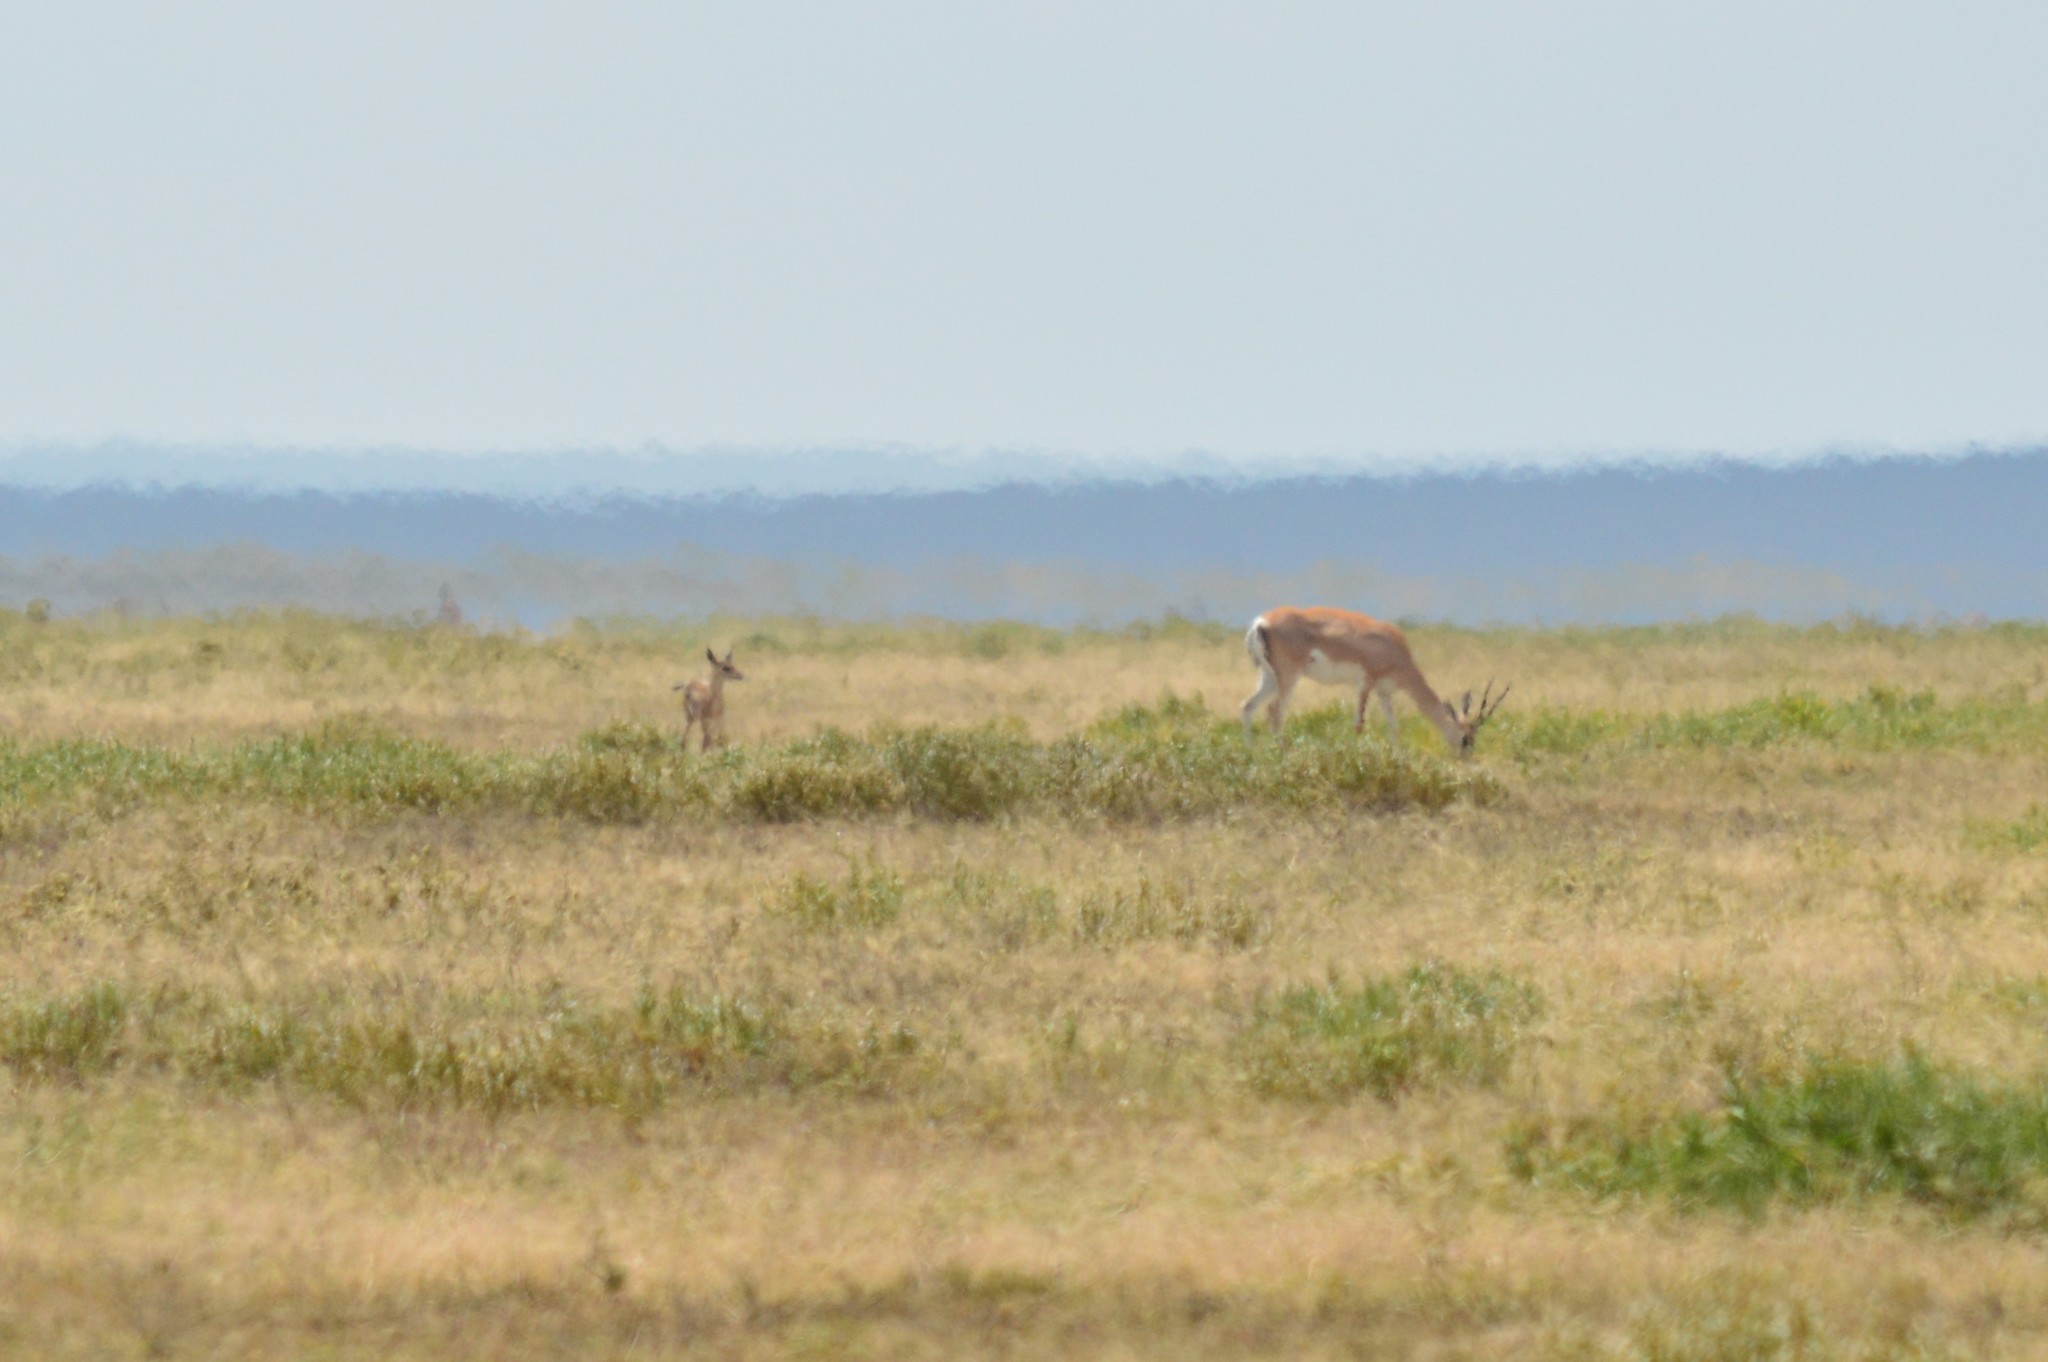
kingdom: Animalia
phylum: Chordata
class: Mammalia
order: Artiodactyla
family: Bovidae
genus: Nanger
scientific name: Nanger granti
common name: Grant's gazelle
